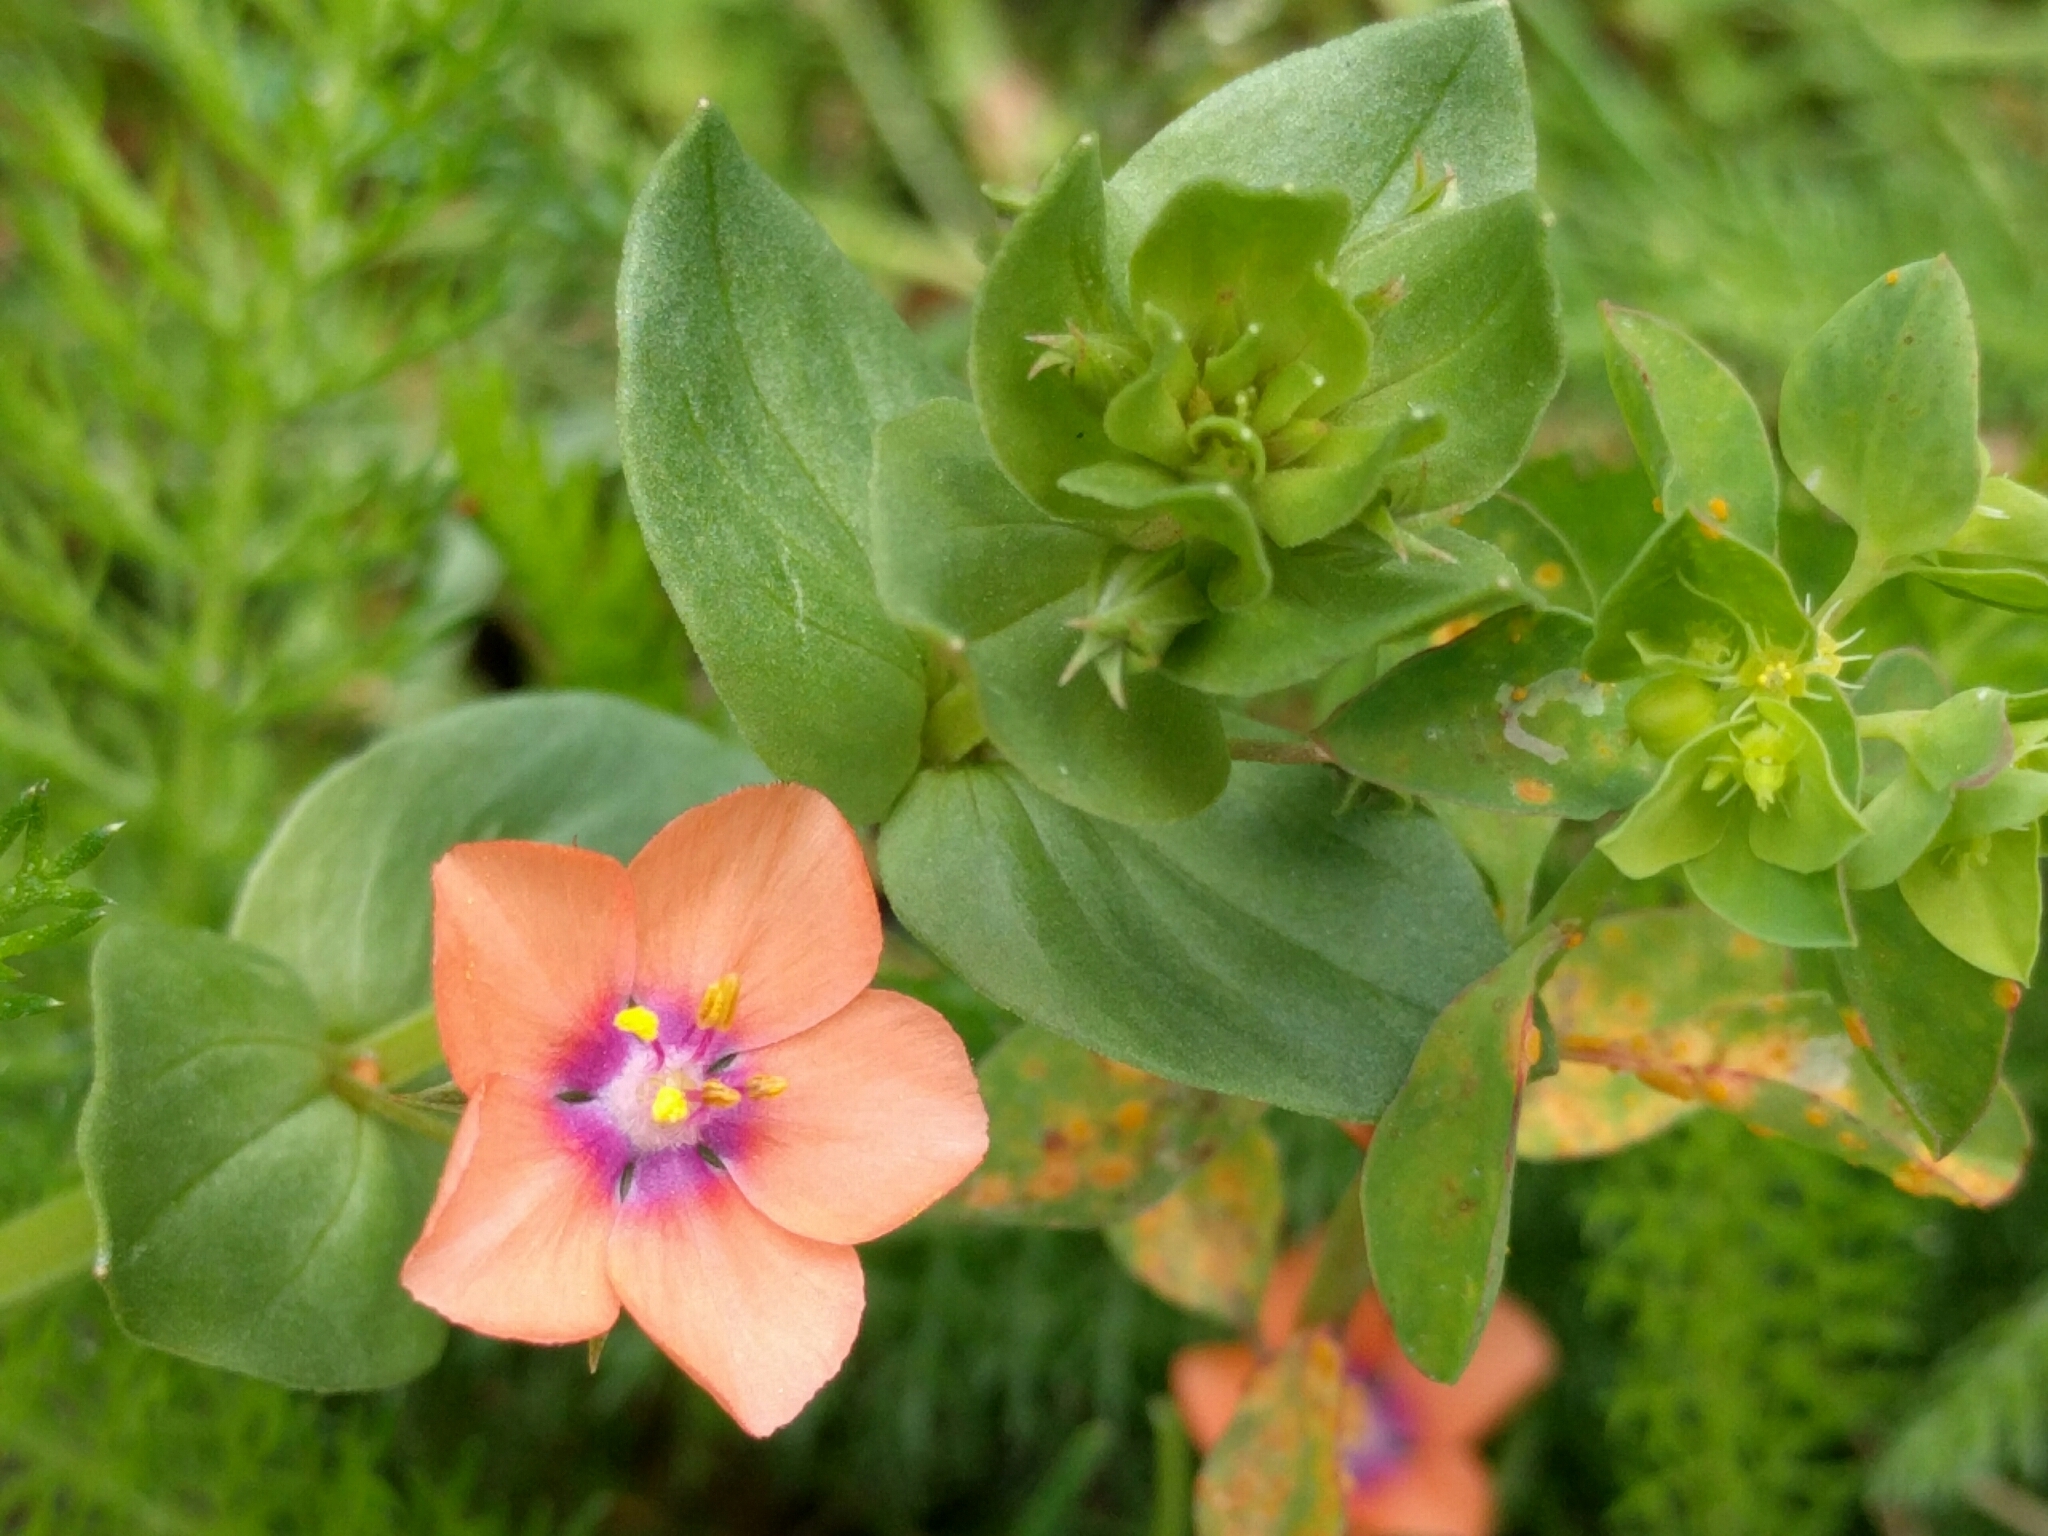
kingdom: Plantae
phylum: Tracheophyta
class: Magnoliopsida
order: Ericales
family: Primulaceae
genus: Lysimachia
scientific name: Lysimachia arvensis
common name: Scarlet pimpernel
